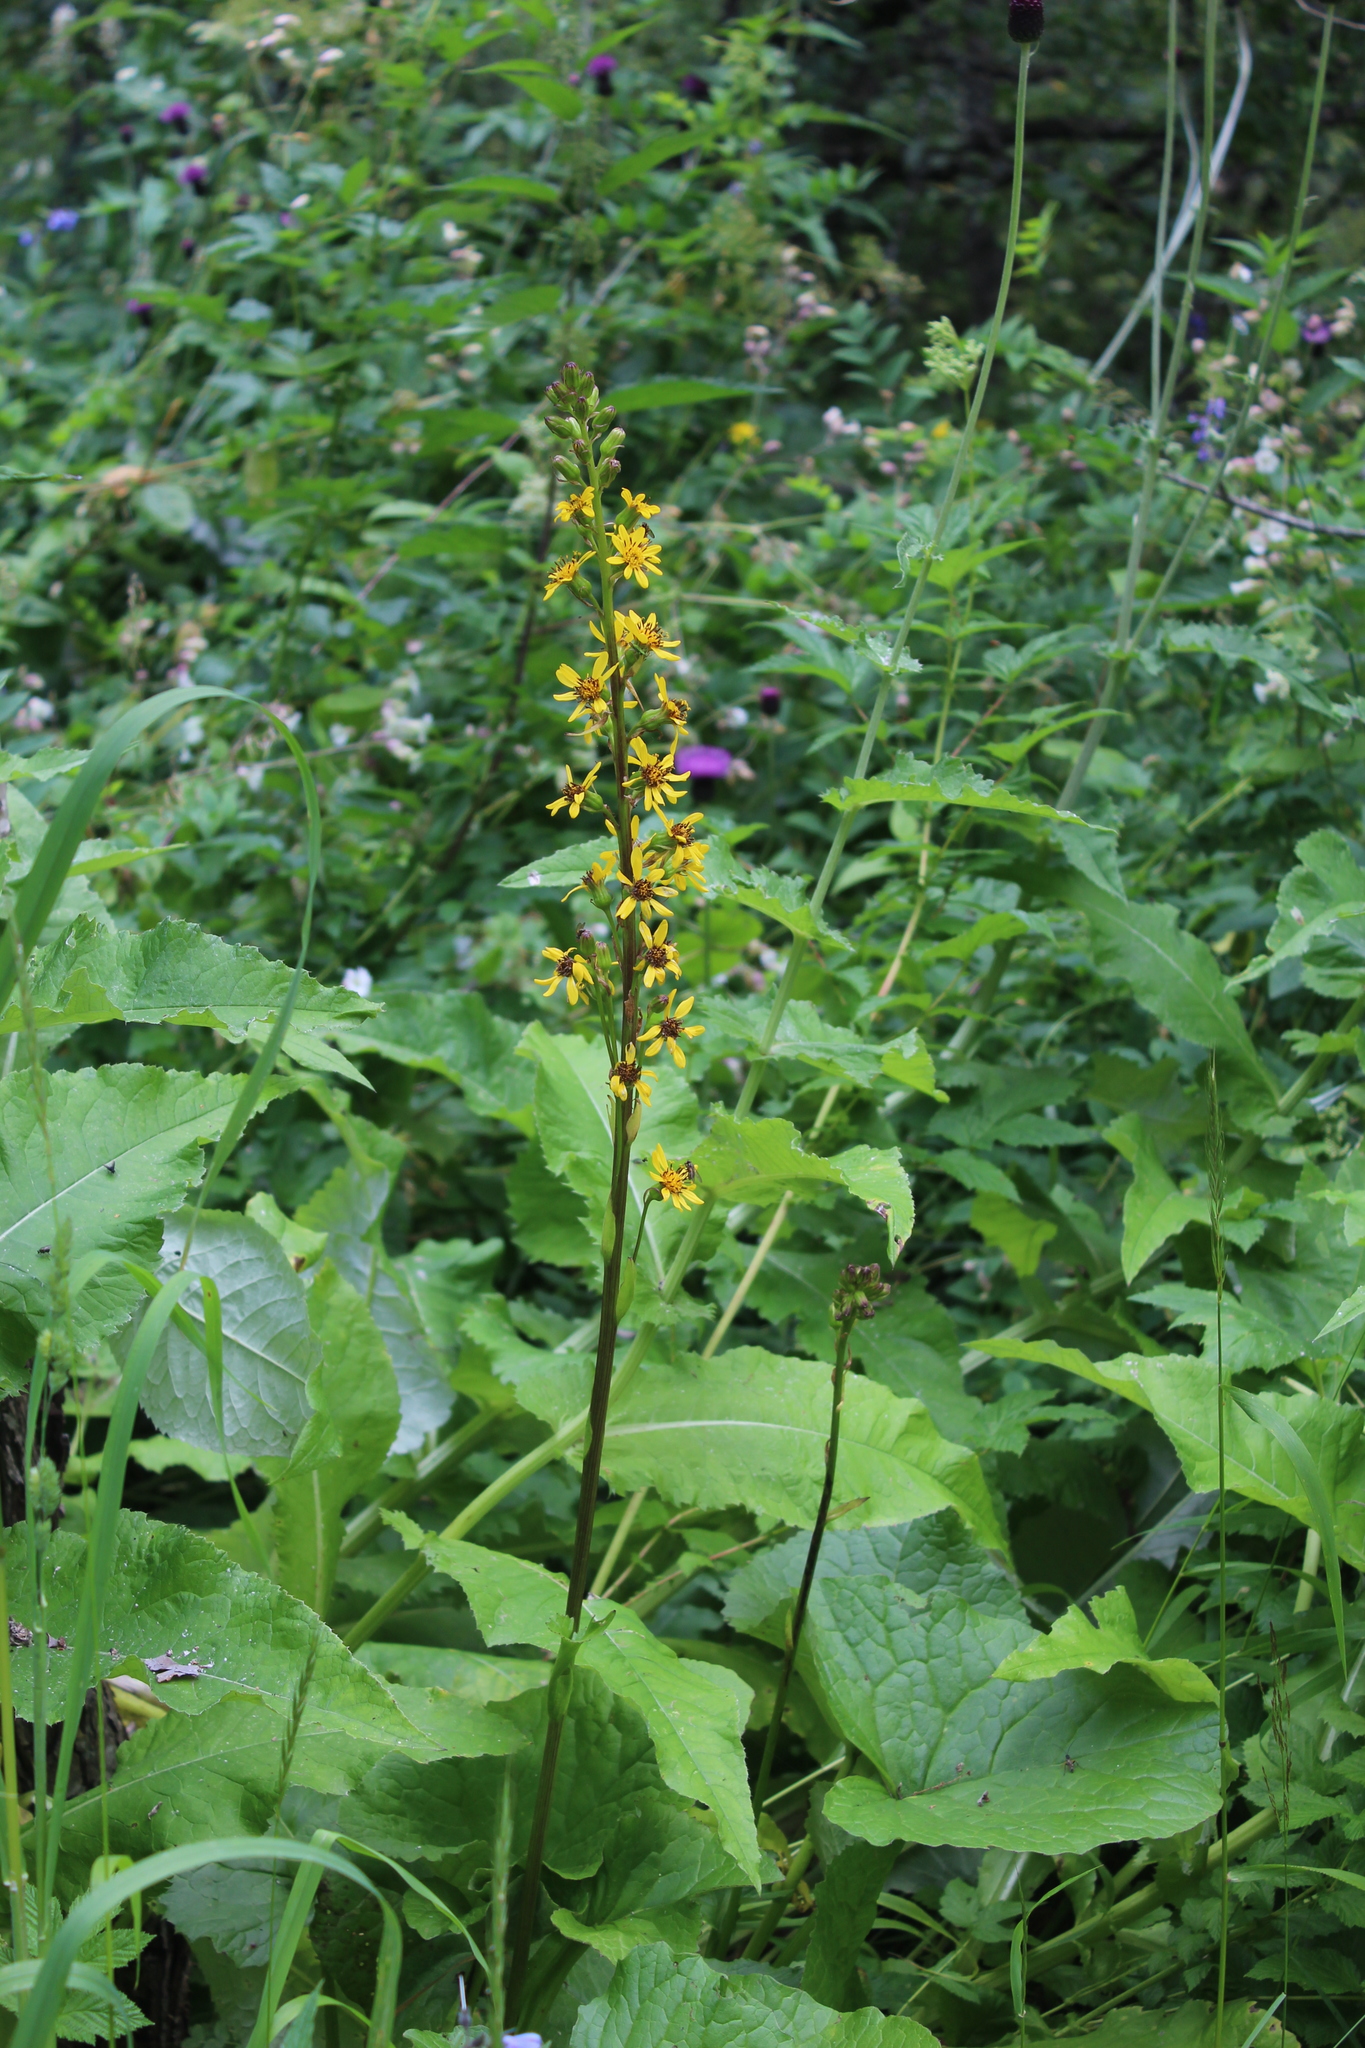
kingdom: Plantae
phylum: Tracheophyta
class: Magnoliopsida
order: Asterales
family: Asteraceae
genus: Ligularia
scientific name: Ligularia subsagittata
